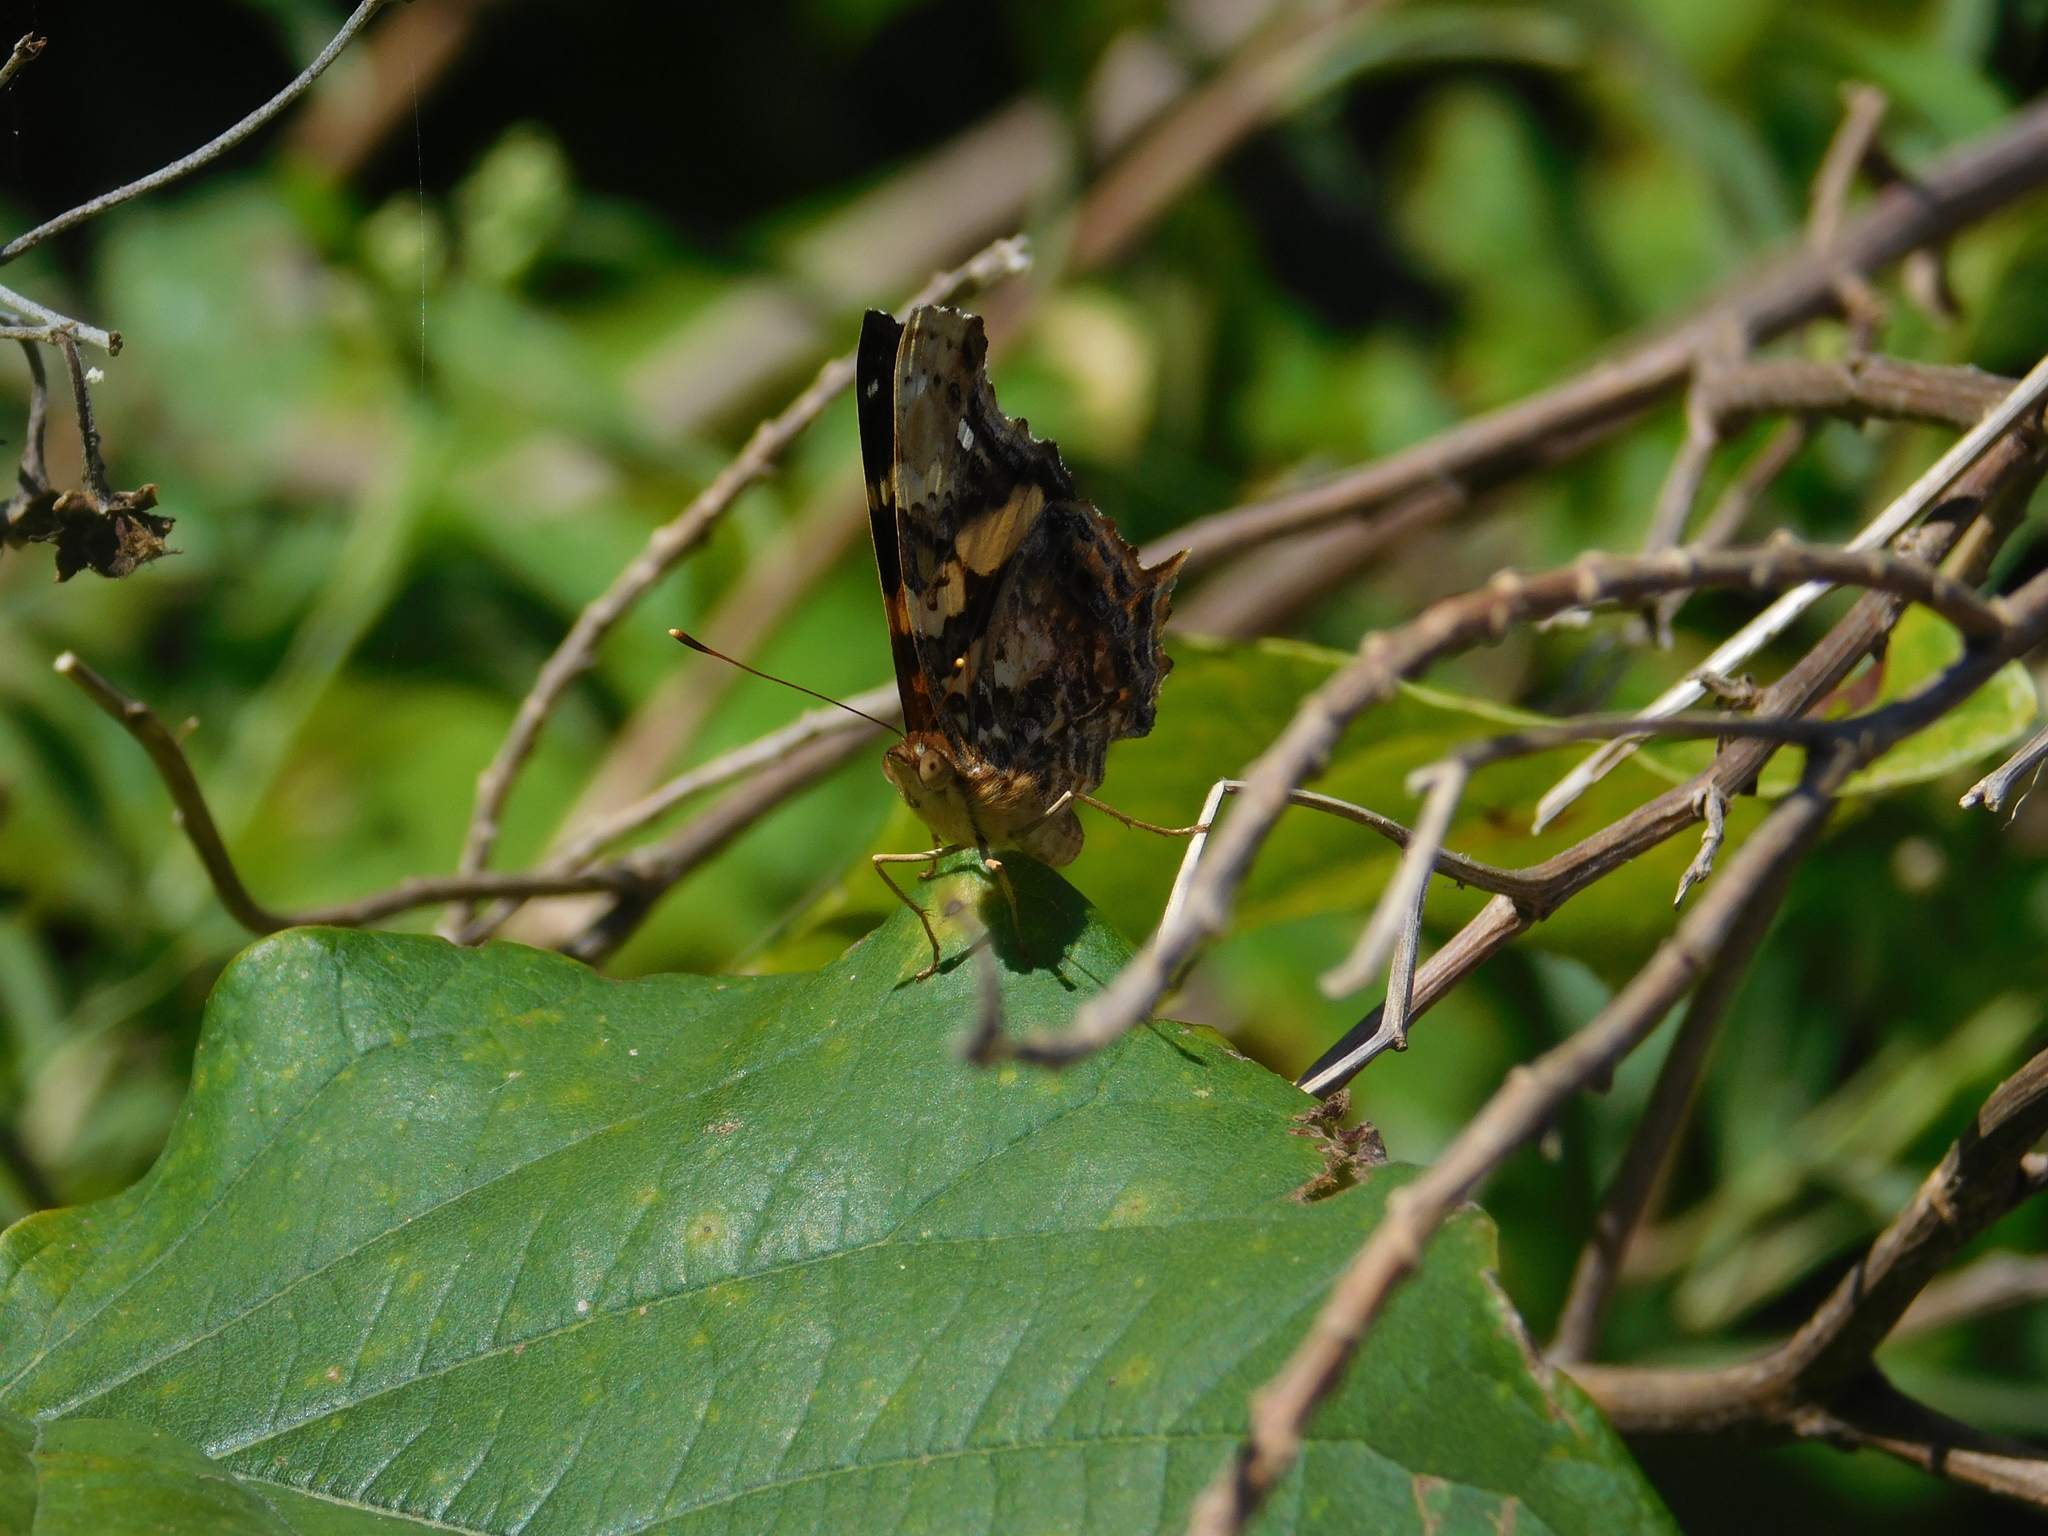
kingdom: Animalia
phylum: Arthropoda
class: Insecta
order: Lepidoptera
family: Nymphalidae
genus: Hypanartia
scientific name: Hypanartia bella
